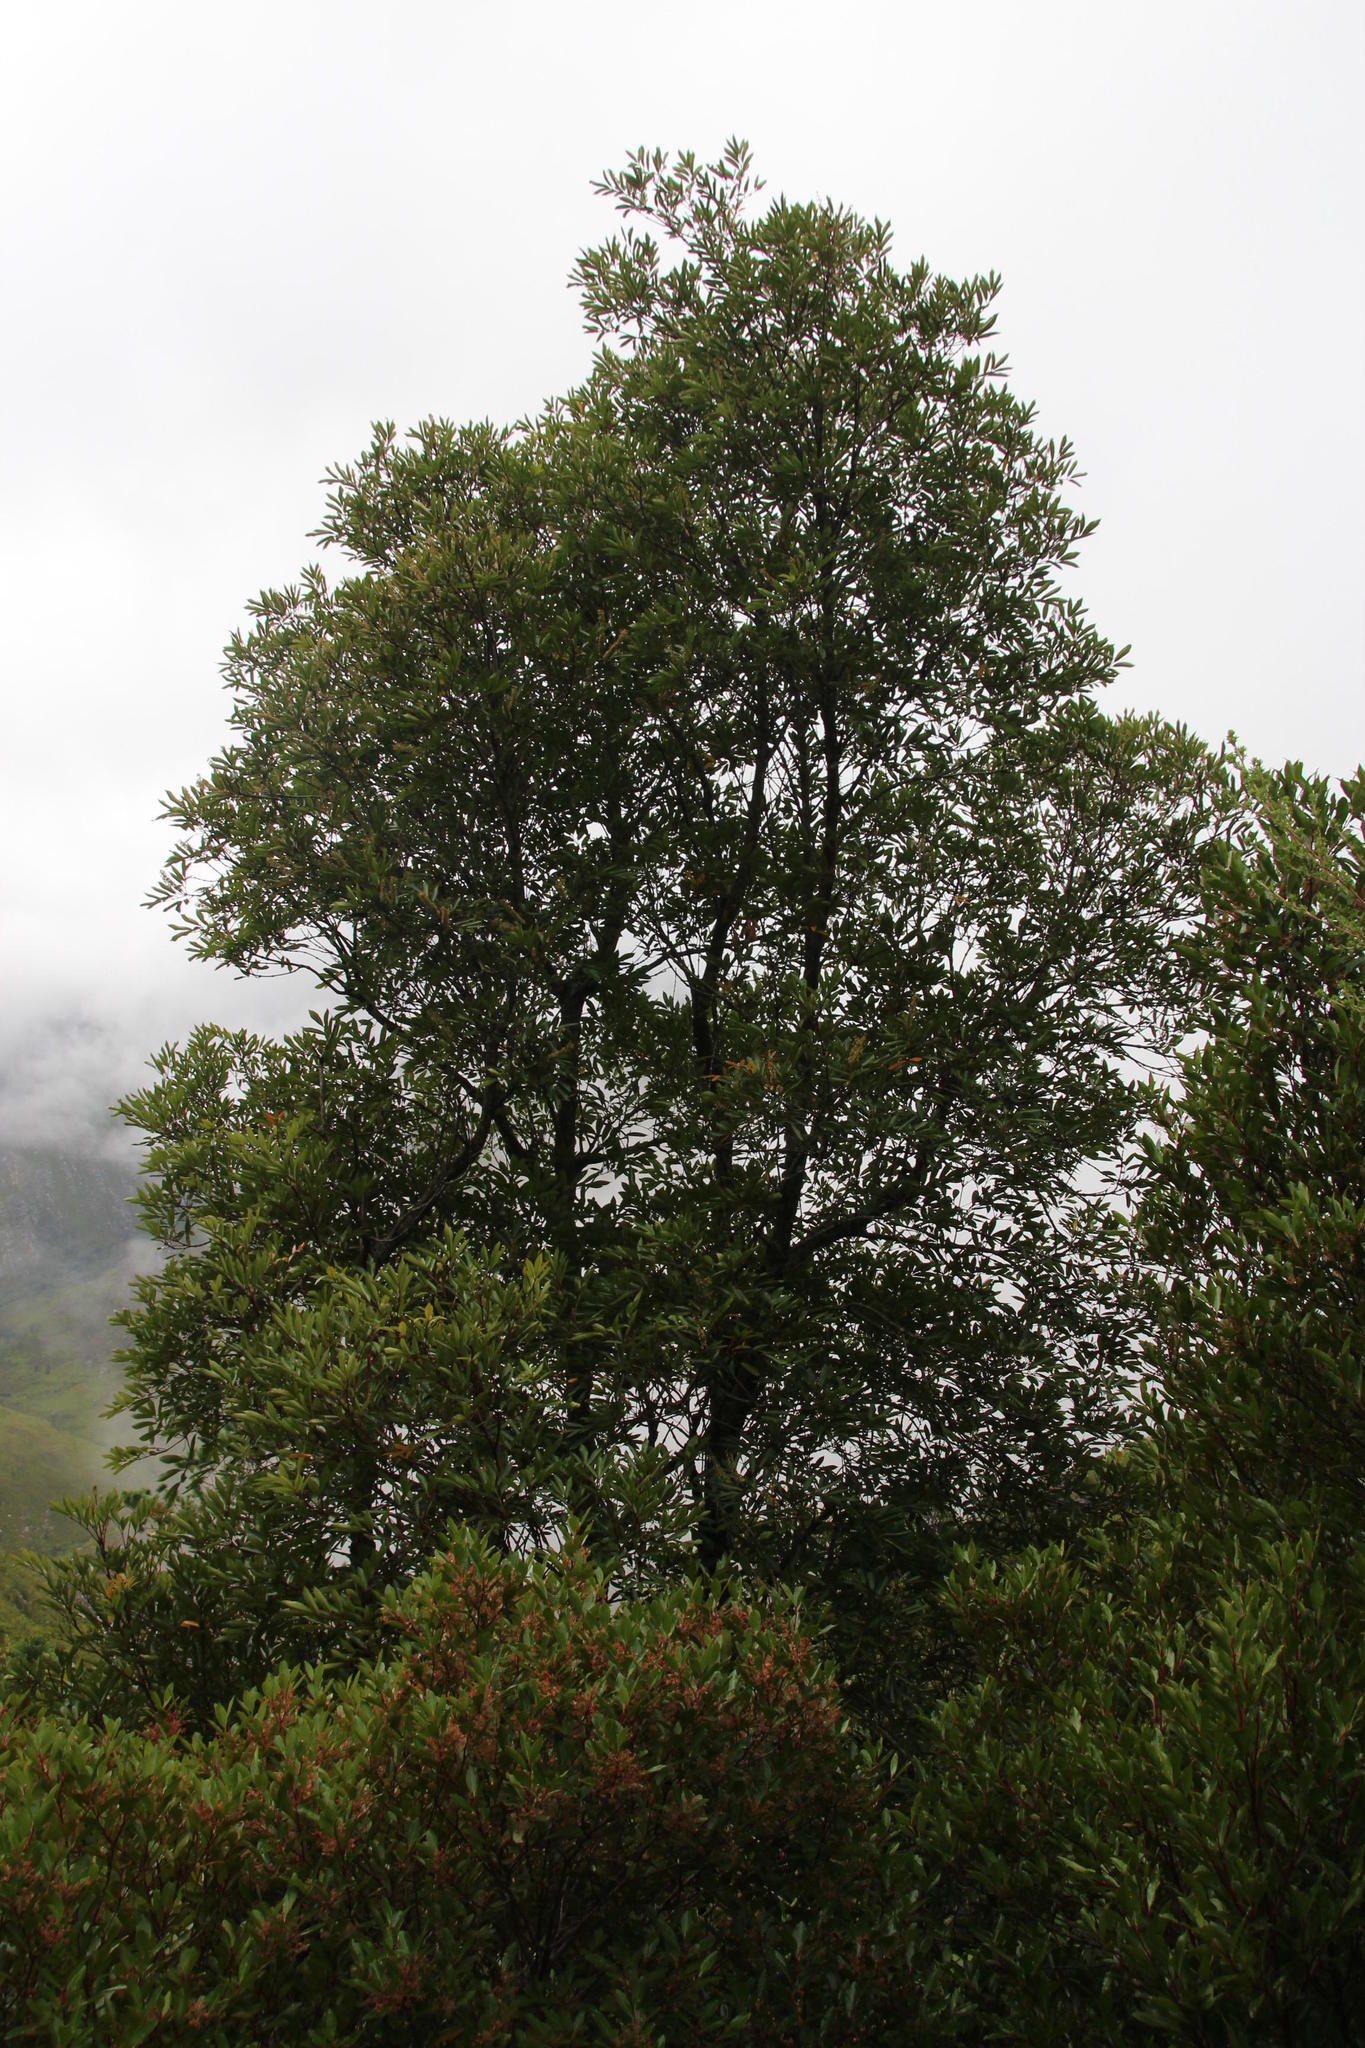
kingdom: Plantae
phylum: Tracheophyta
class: Magnoliopsida
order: Oxalidales
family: Cunoniaceae
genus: Cunonia
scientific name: Cunonia capensis
